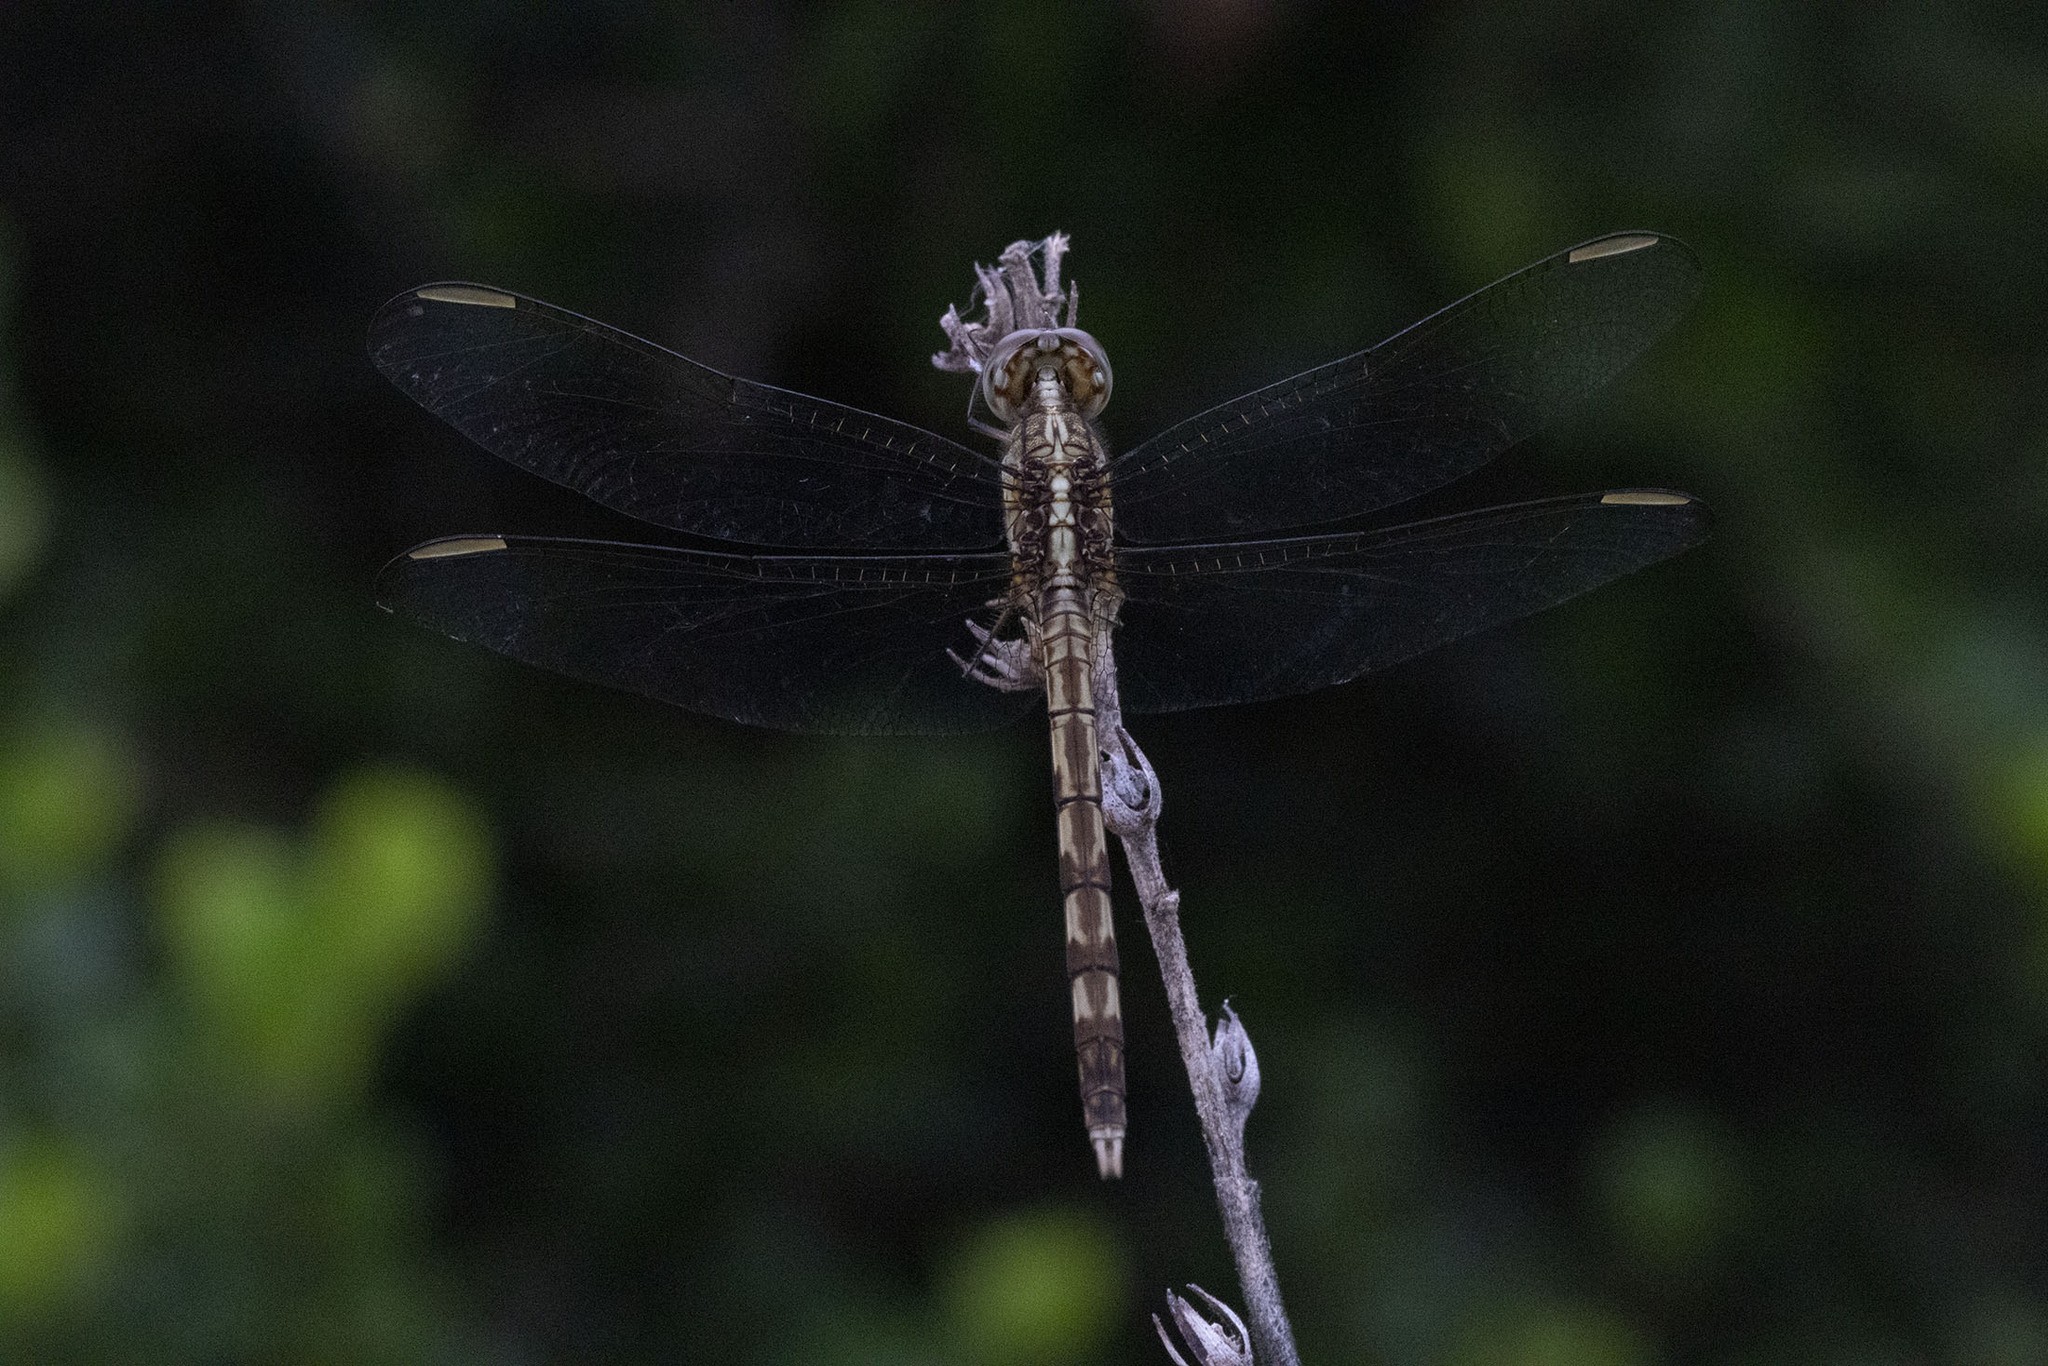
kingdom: Animalia
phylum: Arthropoda
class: Insecta
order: Odonata
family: Libellulidae
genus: Erythrodiplax
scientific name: Erythrodiplax umbrata
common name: Band-winged dragonlet
